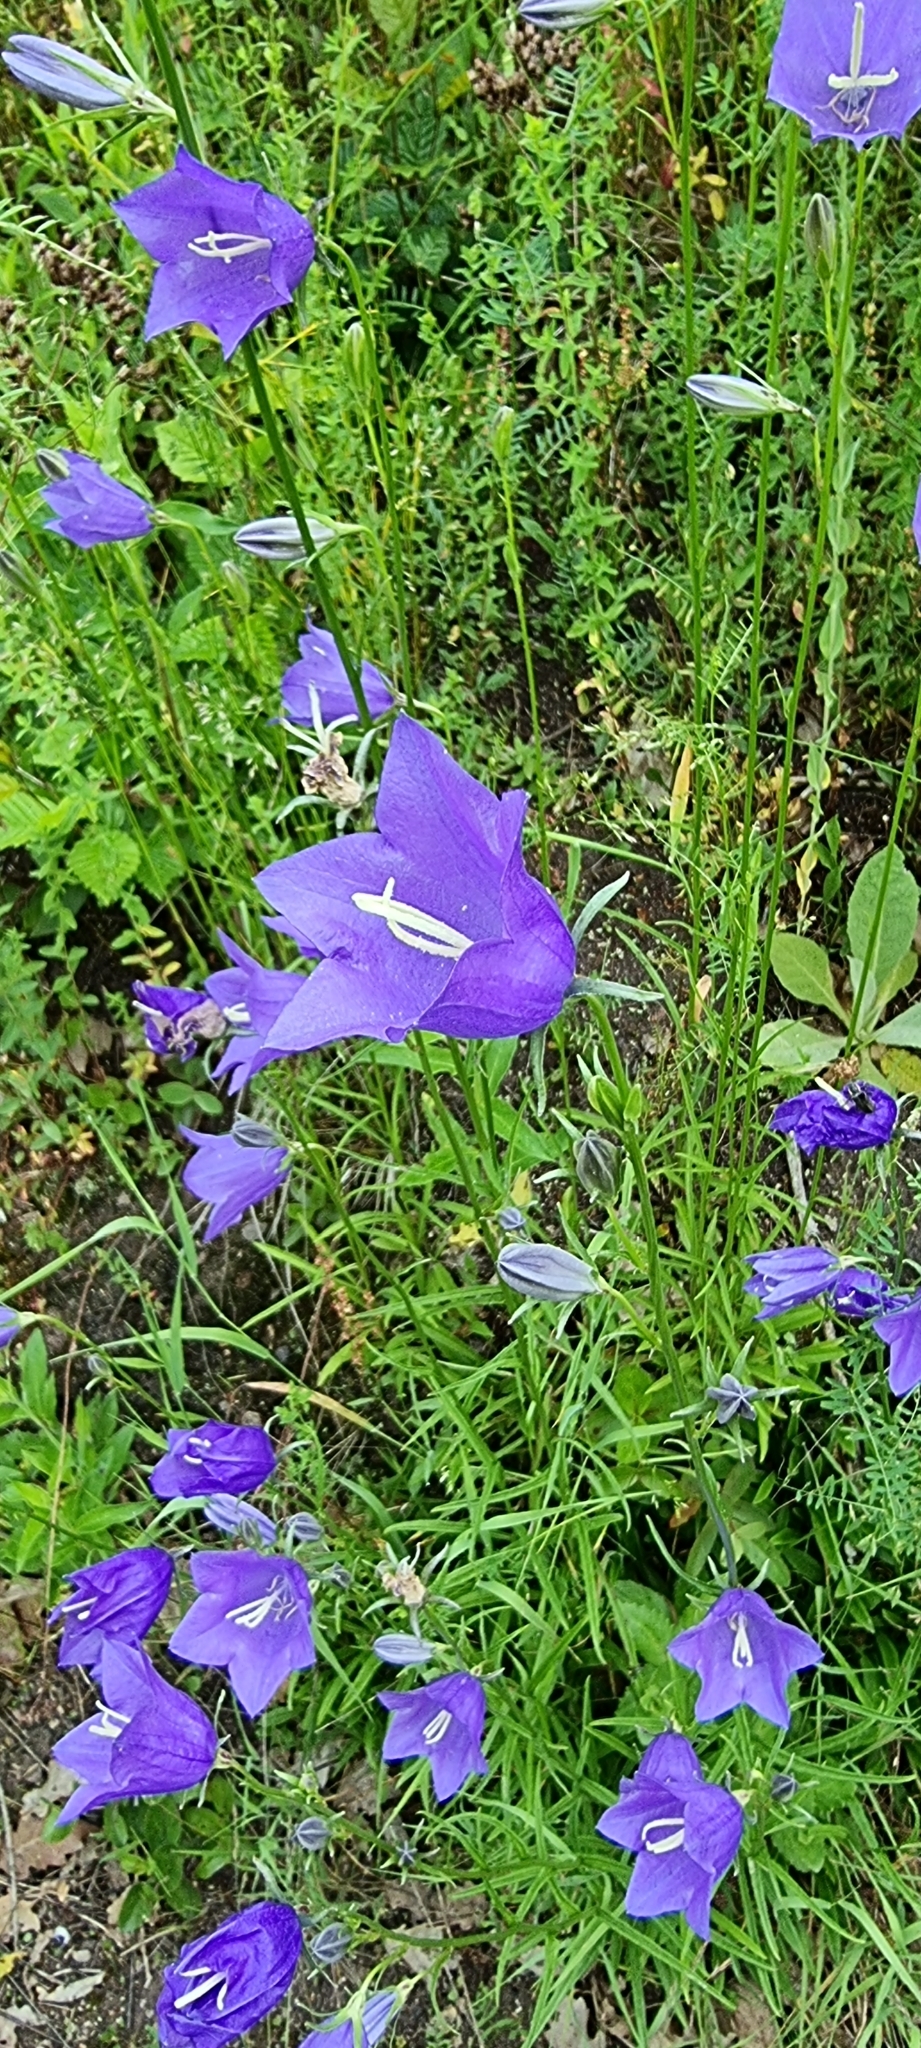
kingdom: Plantae
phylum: Tracheophyta
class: Magnoliopsida
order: Asterales
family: Campanulaceae
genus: Campanula
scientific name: Campanula persicifolia
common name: Peach-leaved bellflower
